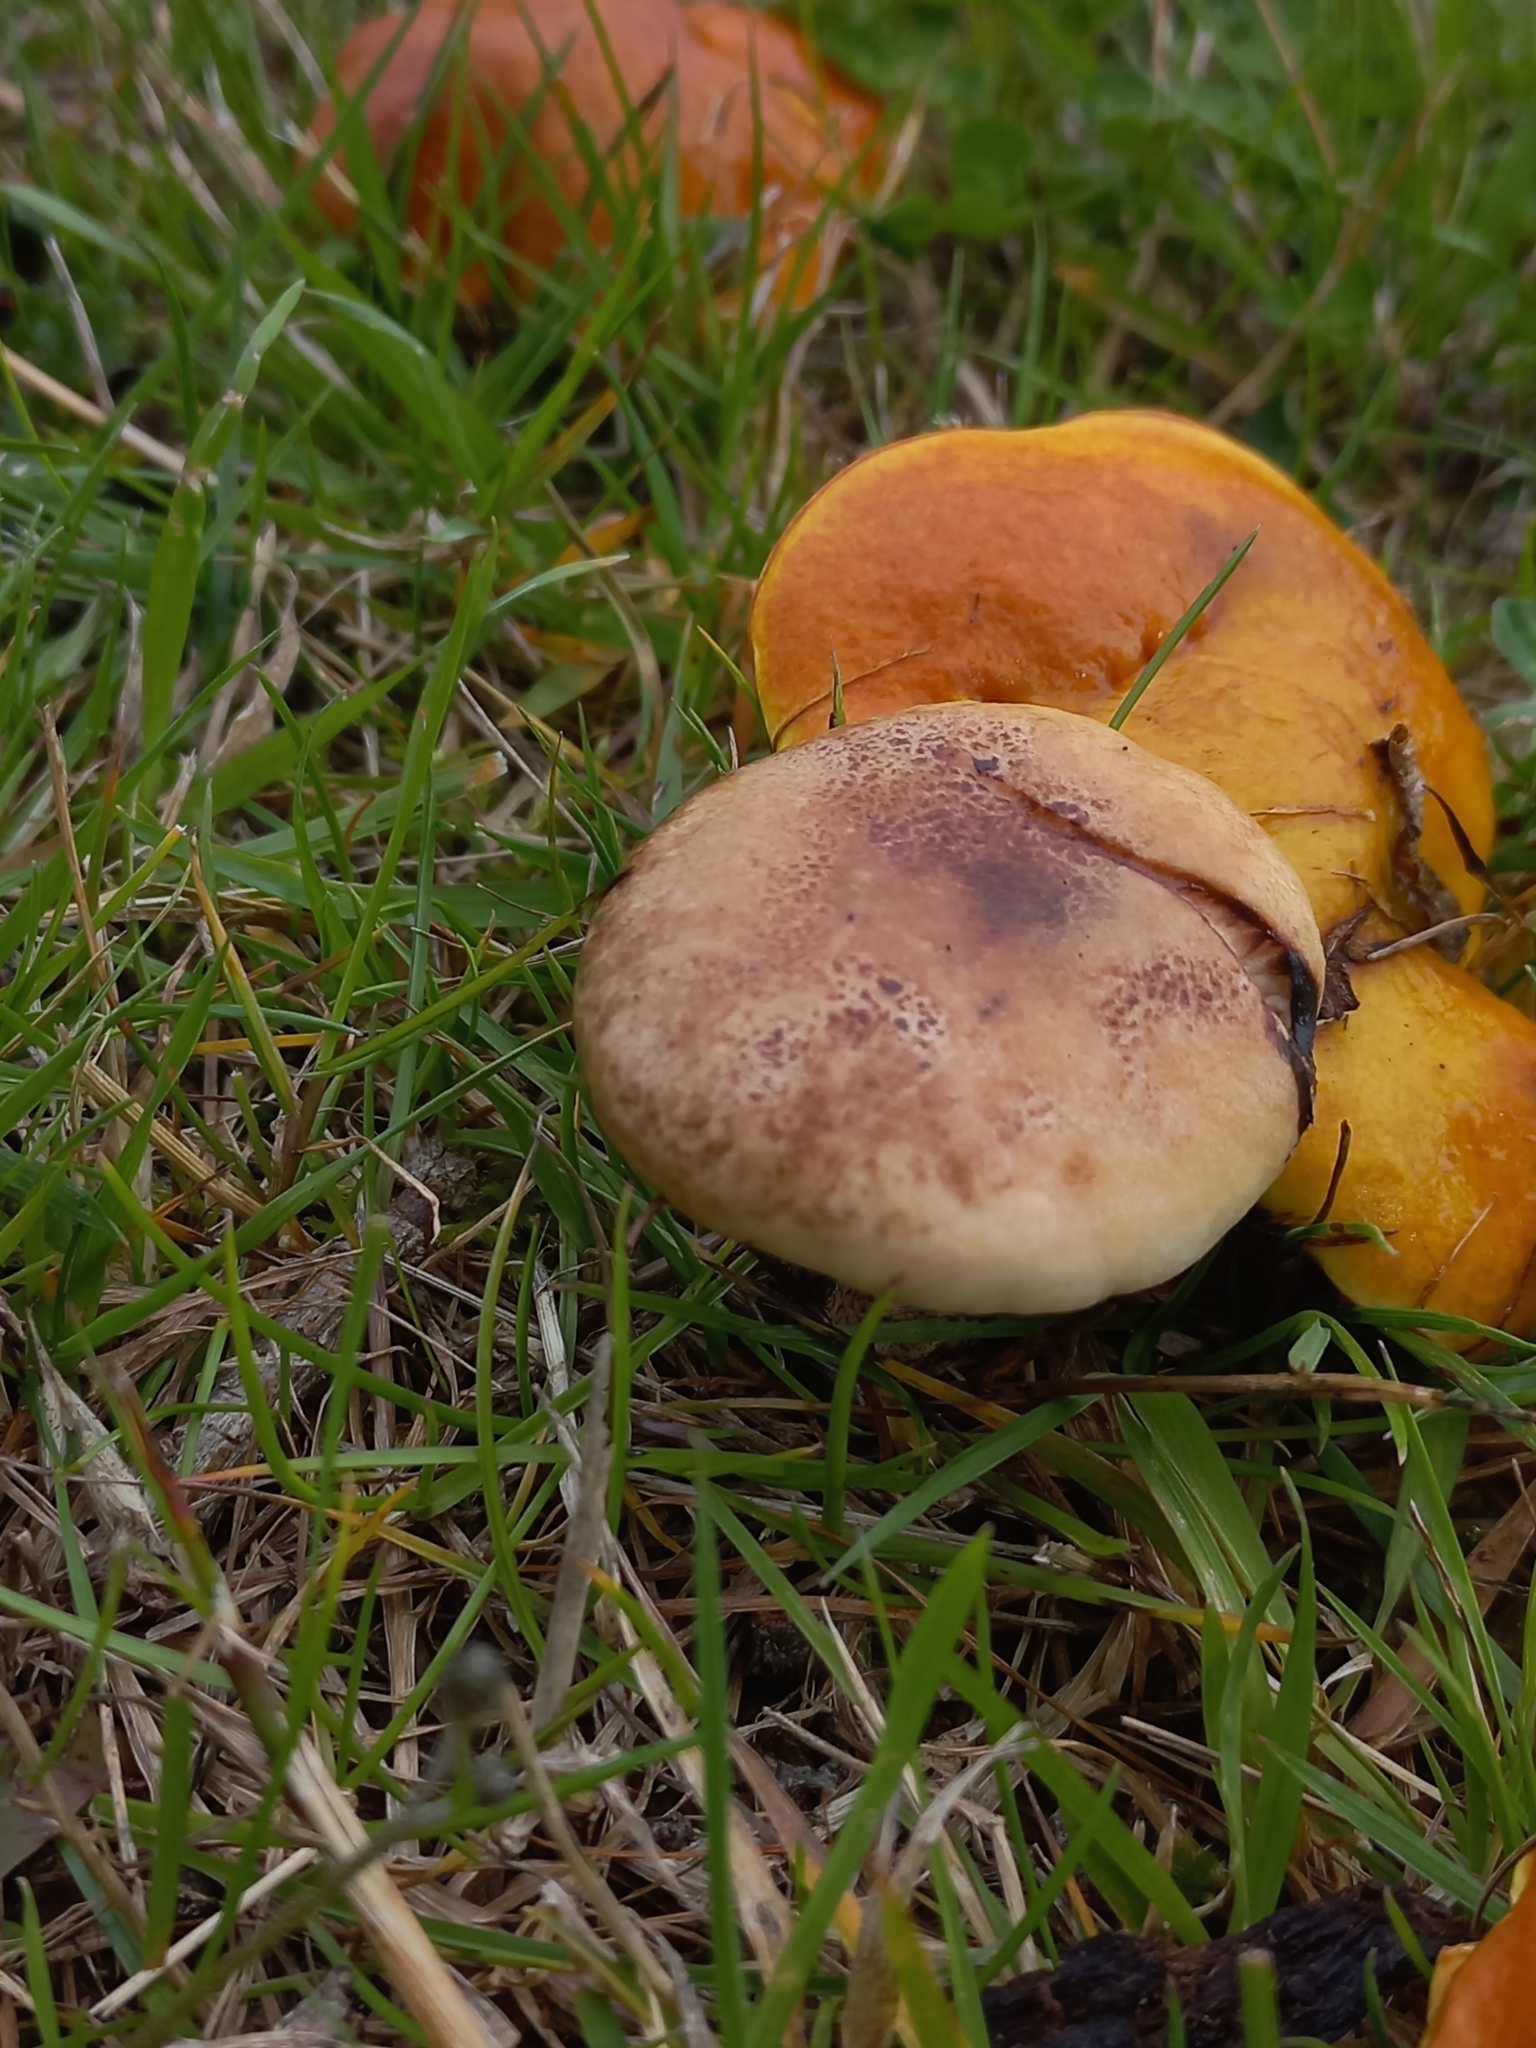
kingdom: Fungi
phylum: Basidiomycota
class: Agaricomycetes
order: Boletales
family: Gomphidiaceae
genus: Gomphidius
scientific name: Gomphidius maculatus
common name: Larch spike
